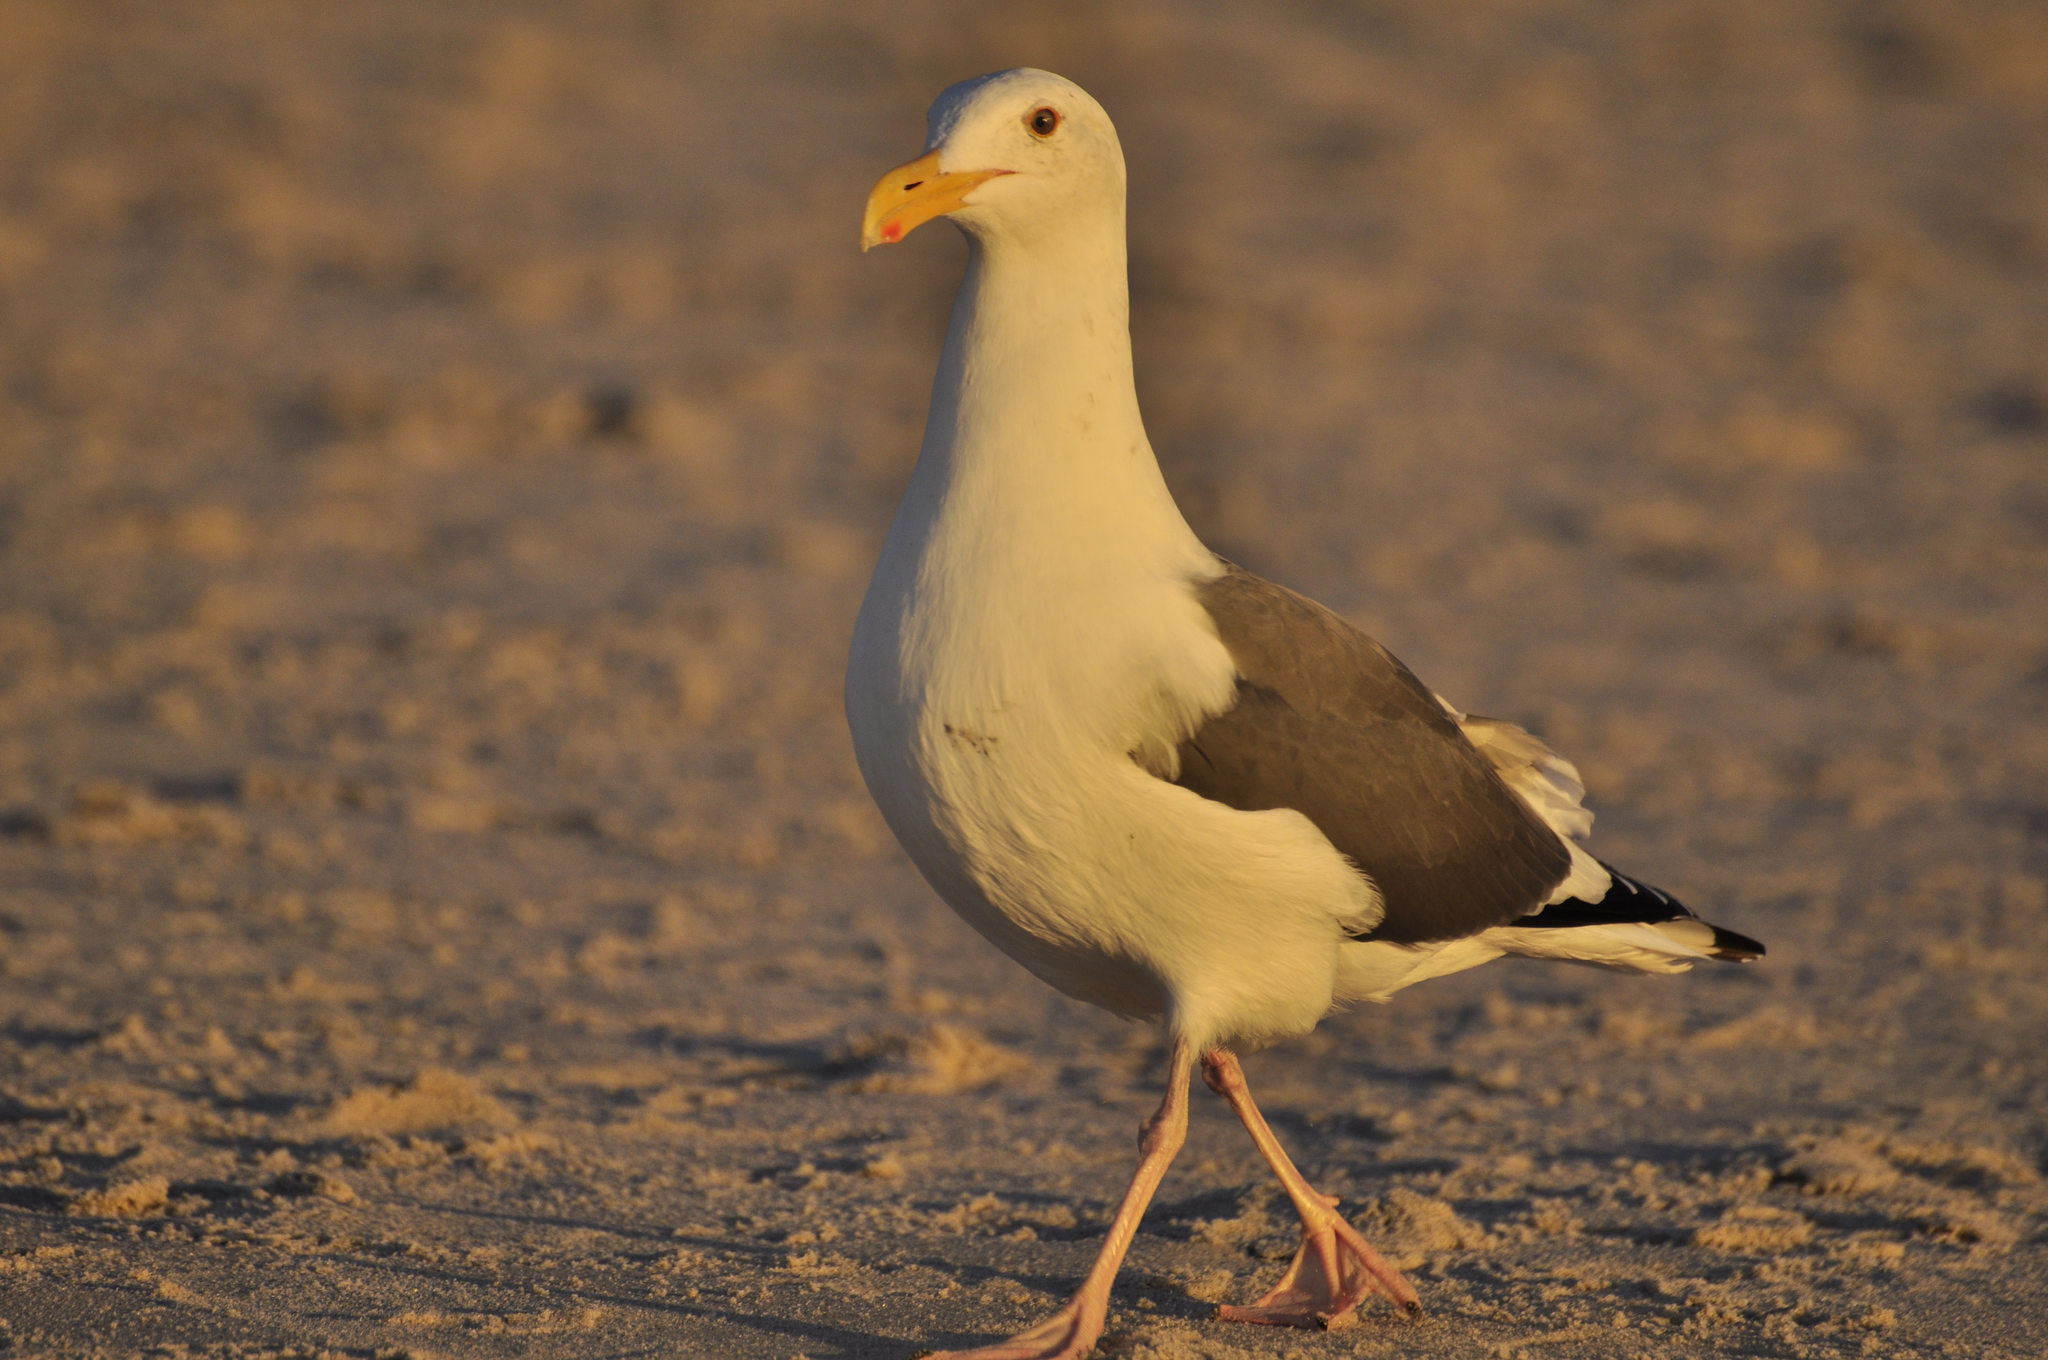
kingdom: Animalia
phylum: Chordata
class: Aves
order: Charadriiformes
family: Laridae
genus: Larus
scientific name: Larus occidentalis
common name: Western gull
